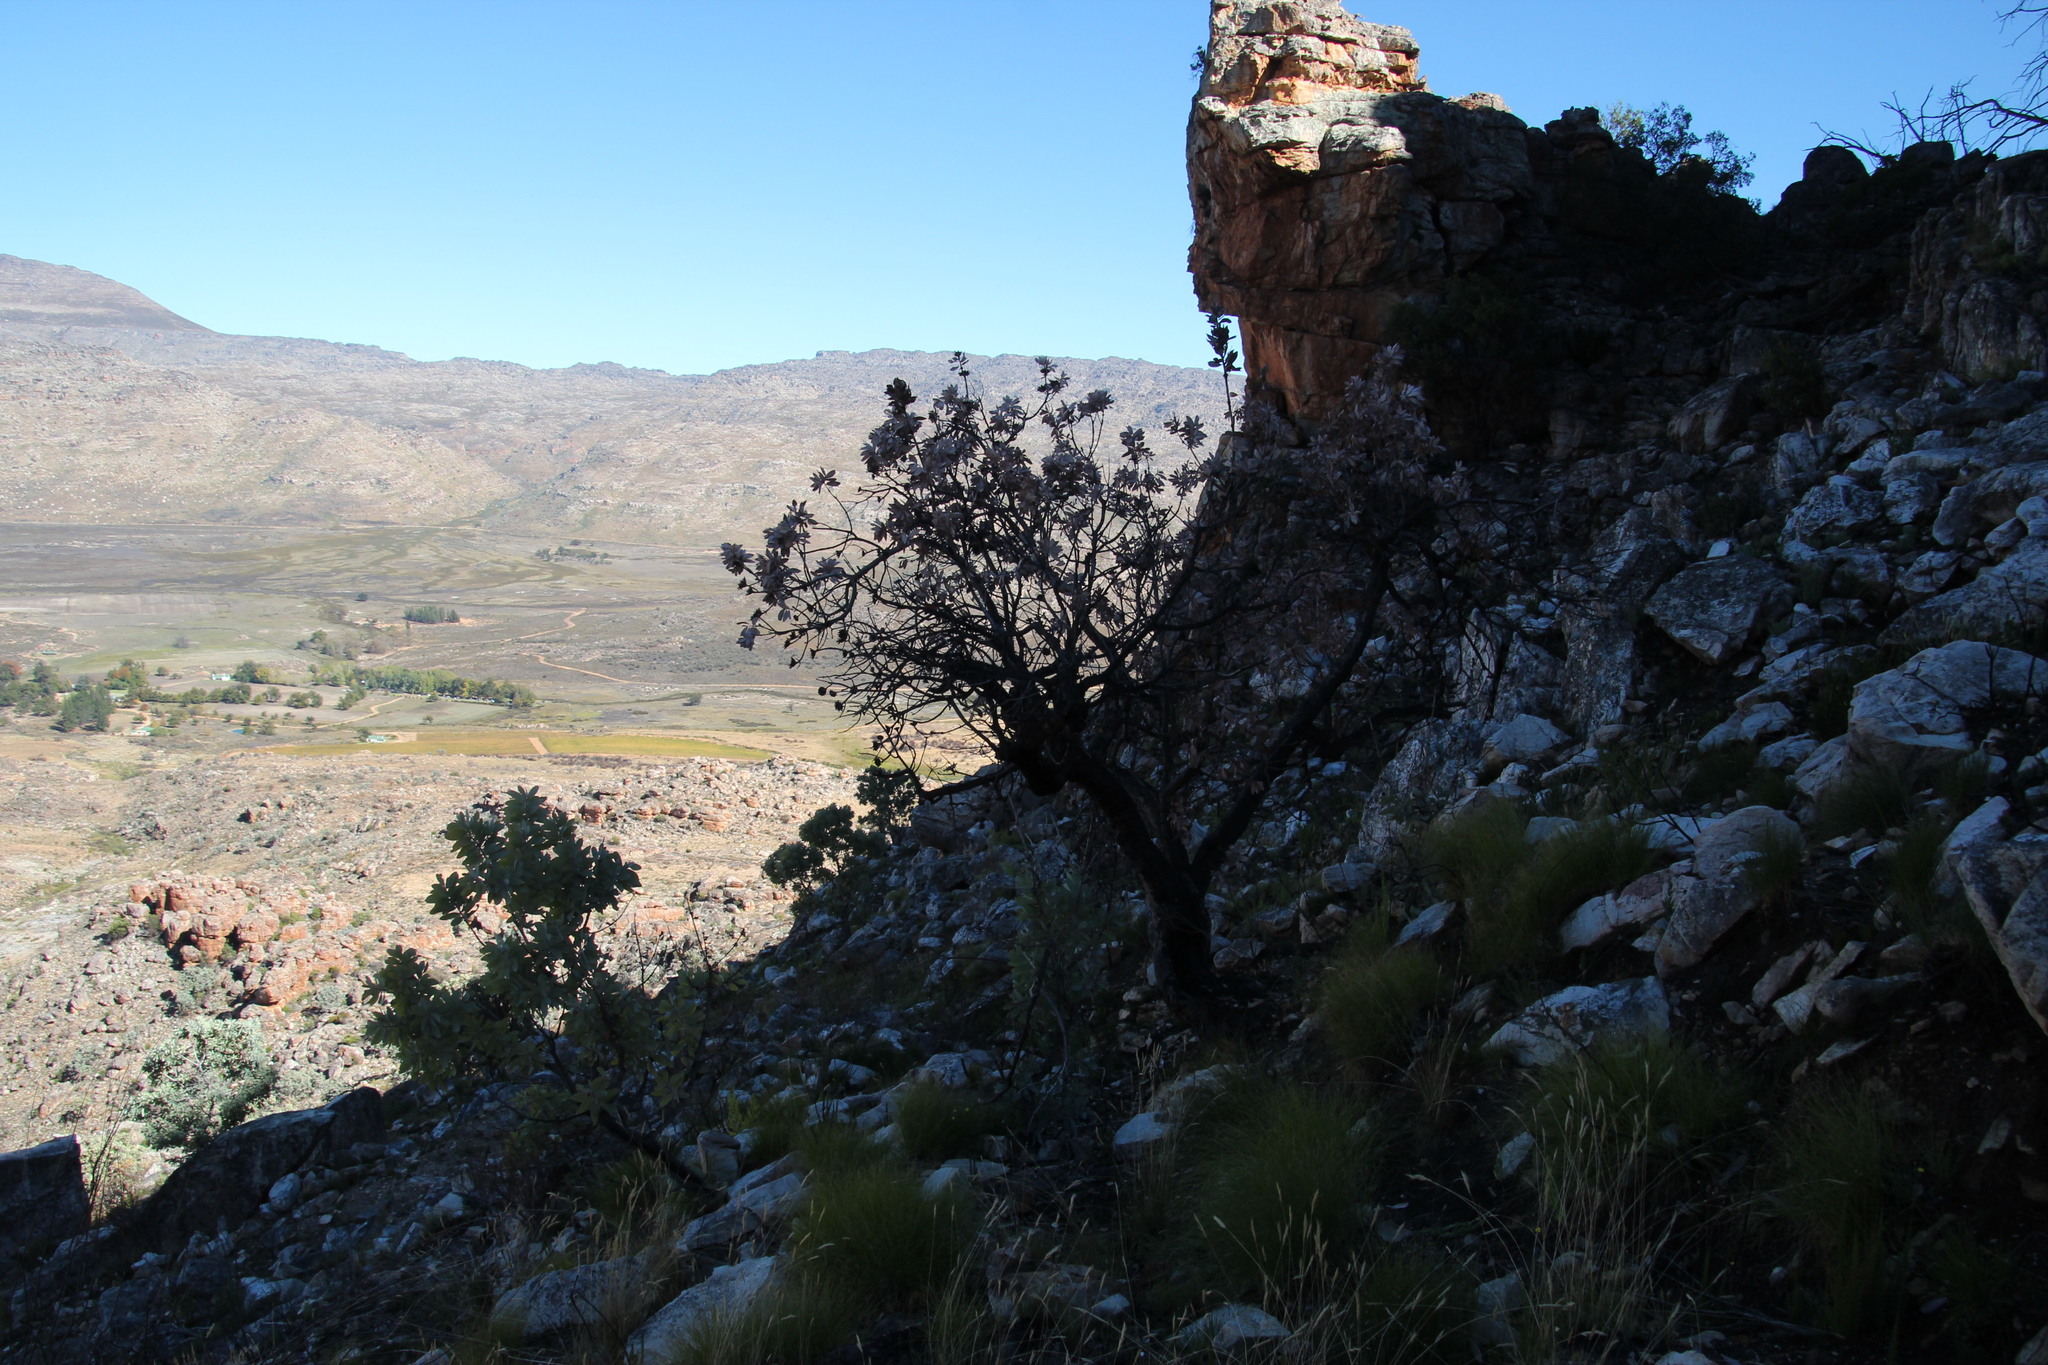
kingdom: Plantae
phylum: Tracheophyta
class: Magnoliopsida
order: Proteales
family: Proteaceae
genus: Protea
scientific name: Protea nitida
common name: Tree protea
